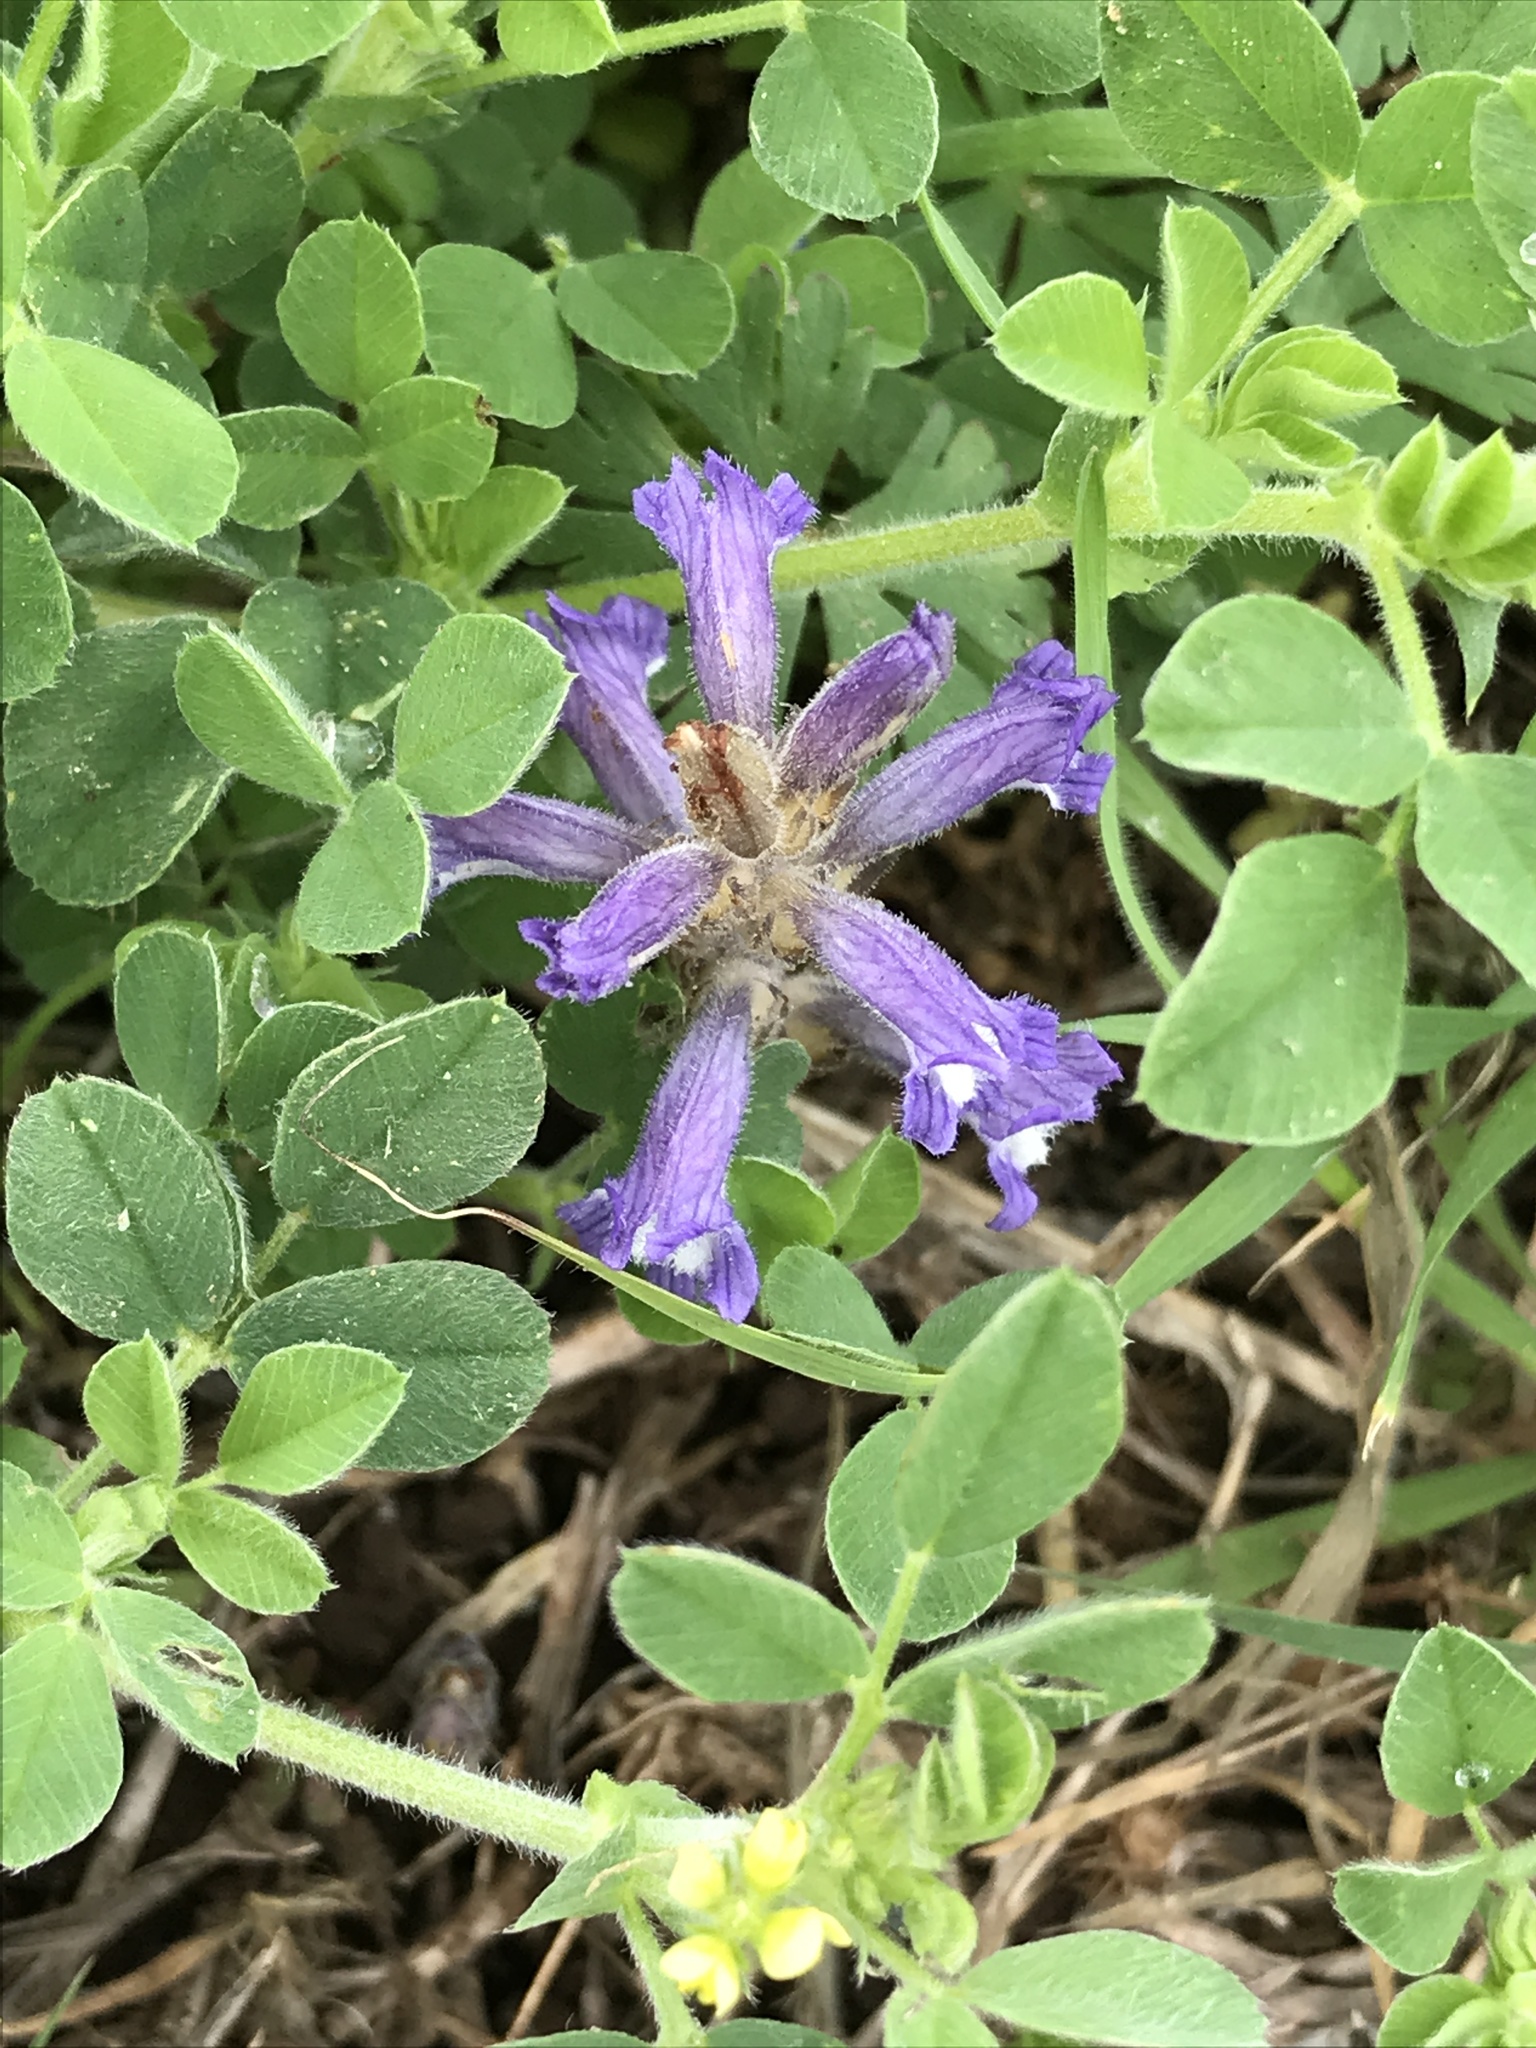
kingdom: Plantae
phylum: Tracheophyta
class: Magnoliopsida
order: Lamiales
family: Orobanchaceae
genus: Phelipanche
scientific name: Phelipanche mutelii
